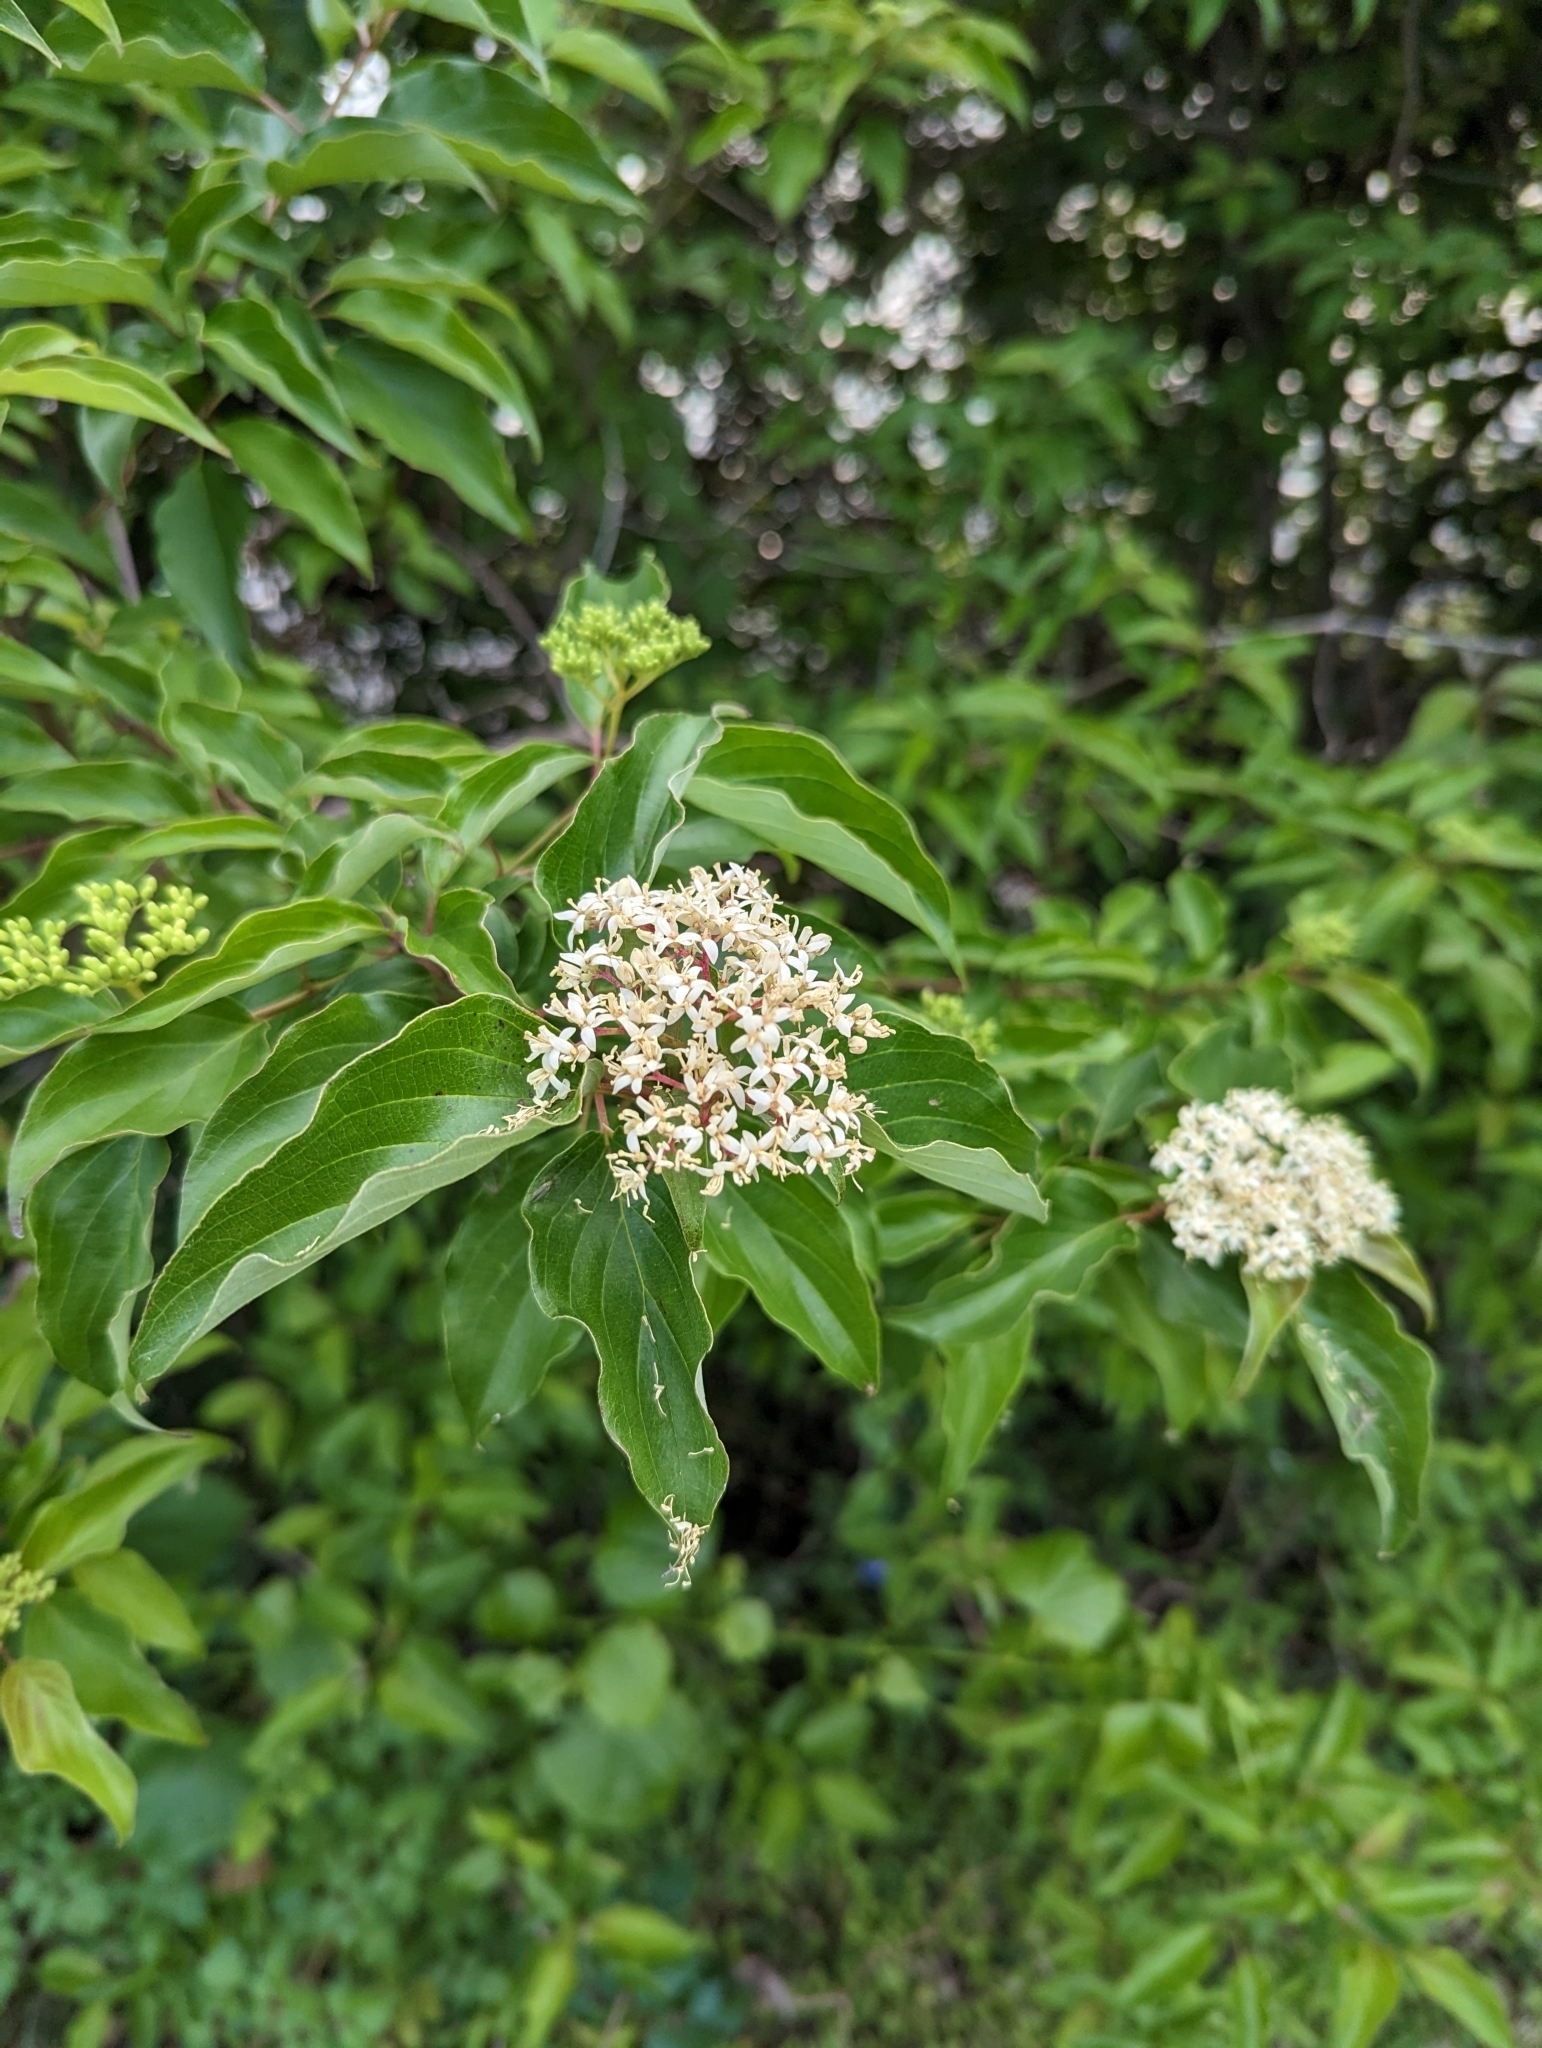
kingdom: Plantae
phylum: Tracheophyta
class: Magnoliopsida
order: Cornales
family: Cornaceae
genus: Cornus
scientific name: Cornus drummondii
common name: Rough-leaf dogwood
